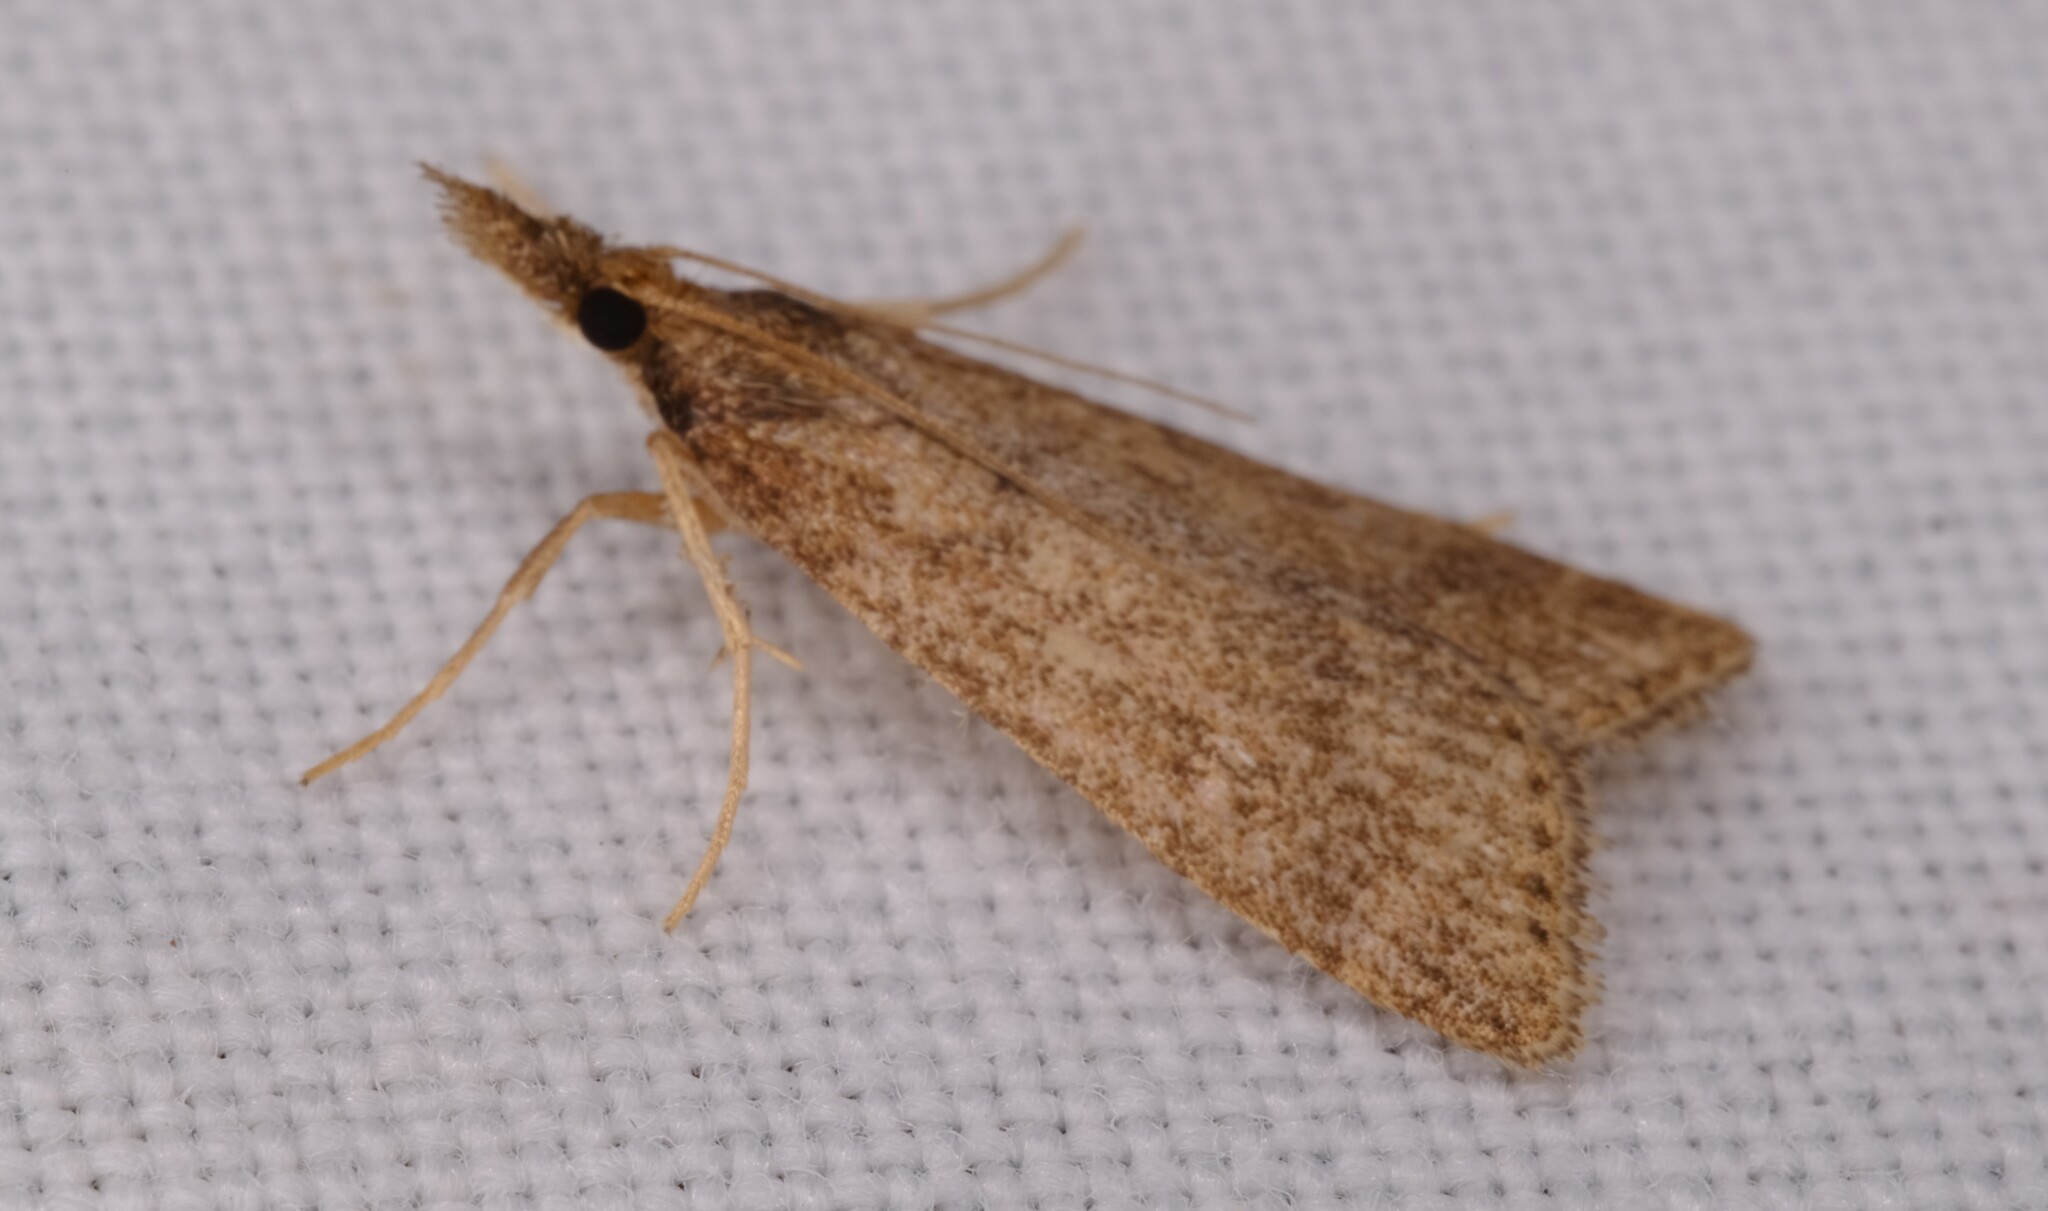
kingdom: Animalia
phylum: Arthropoda
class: Insecta
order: Lepidoptera
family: Crambidae
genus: Eudonia
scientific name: Eudonia cleodoralis
